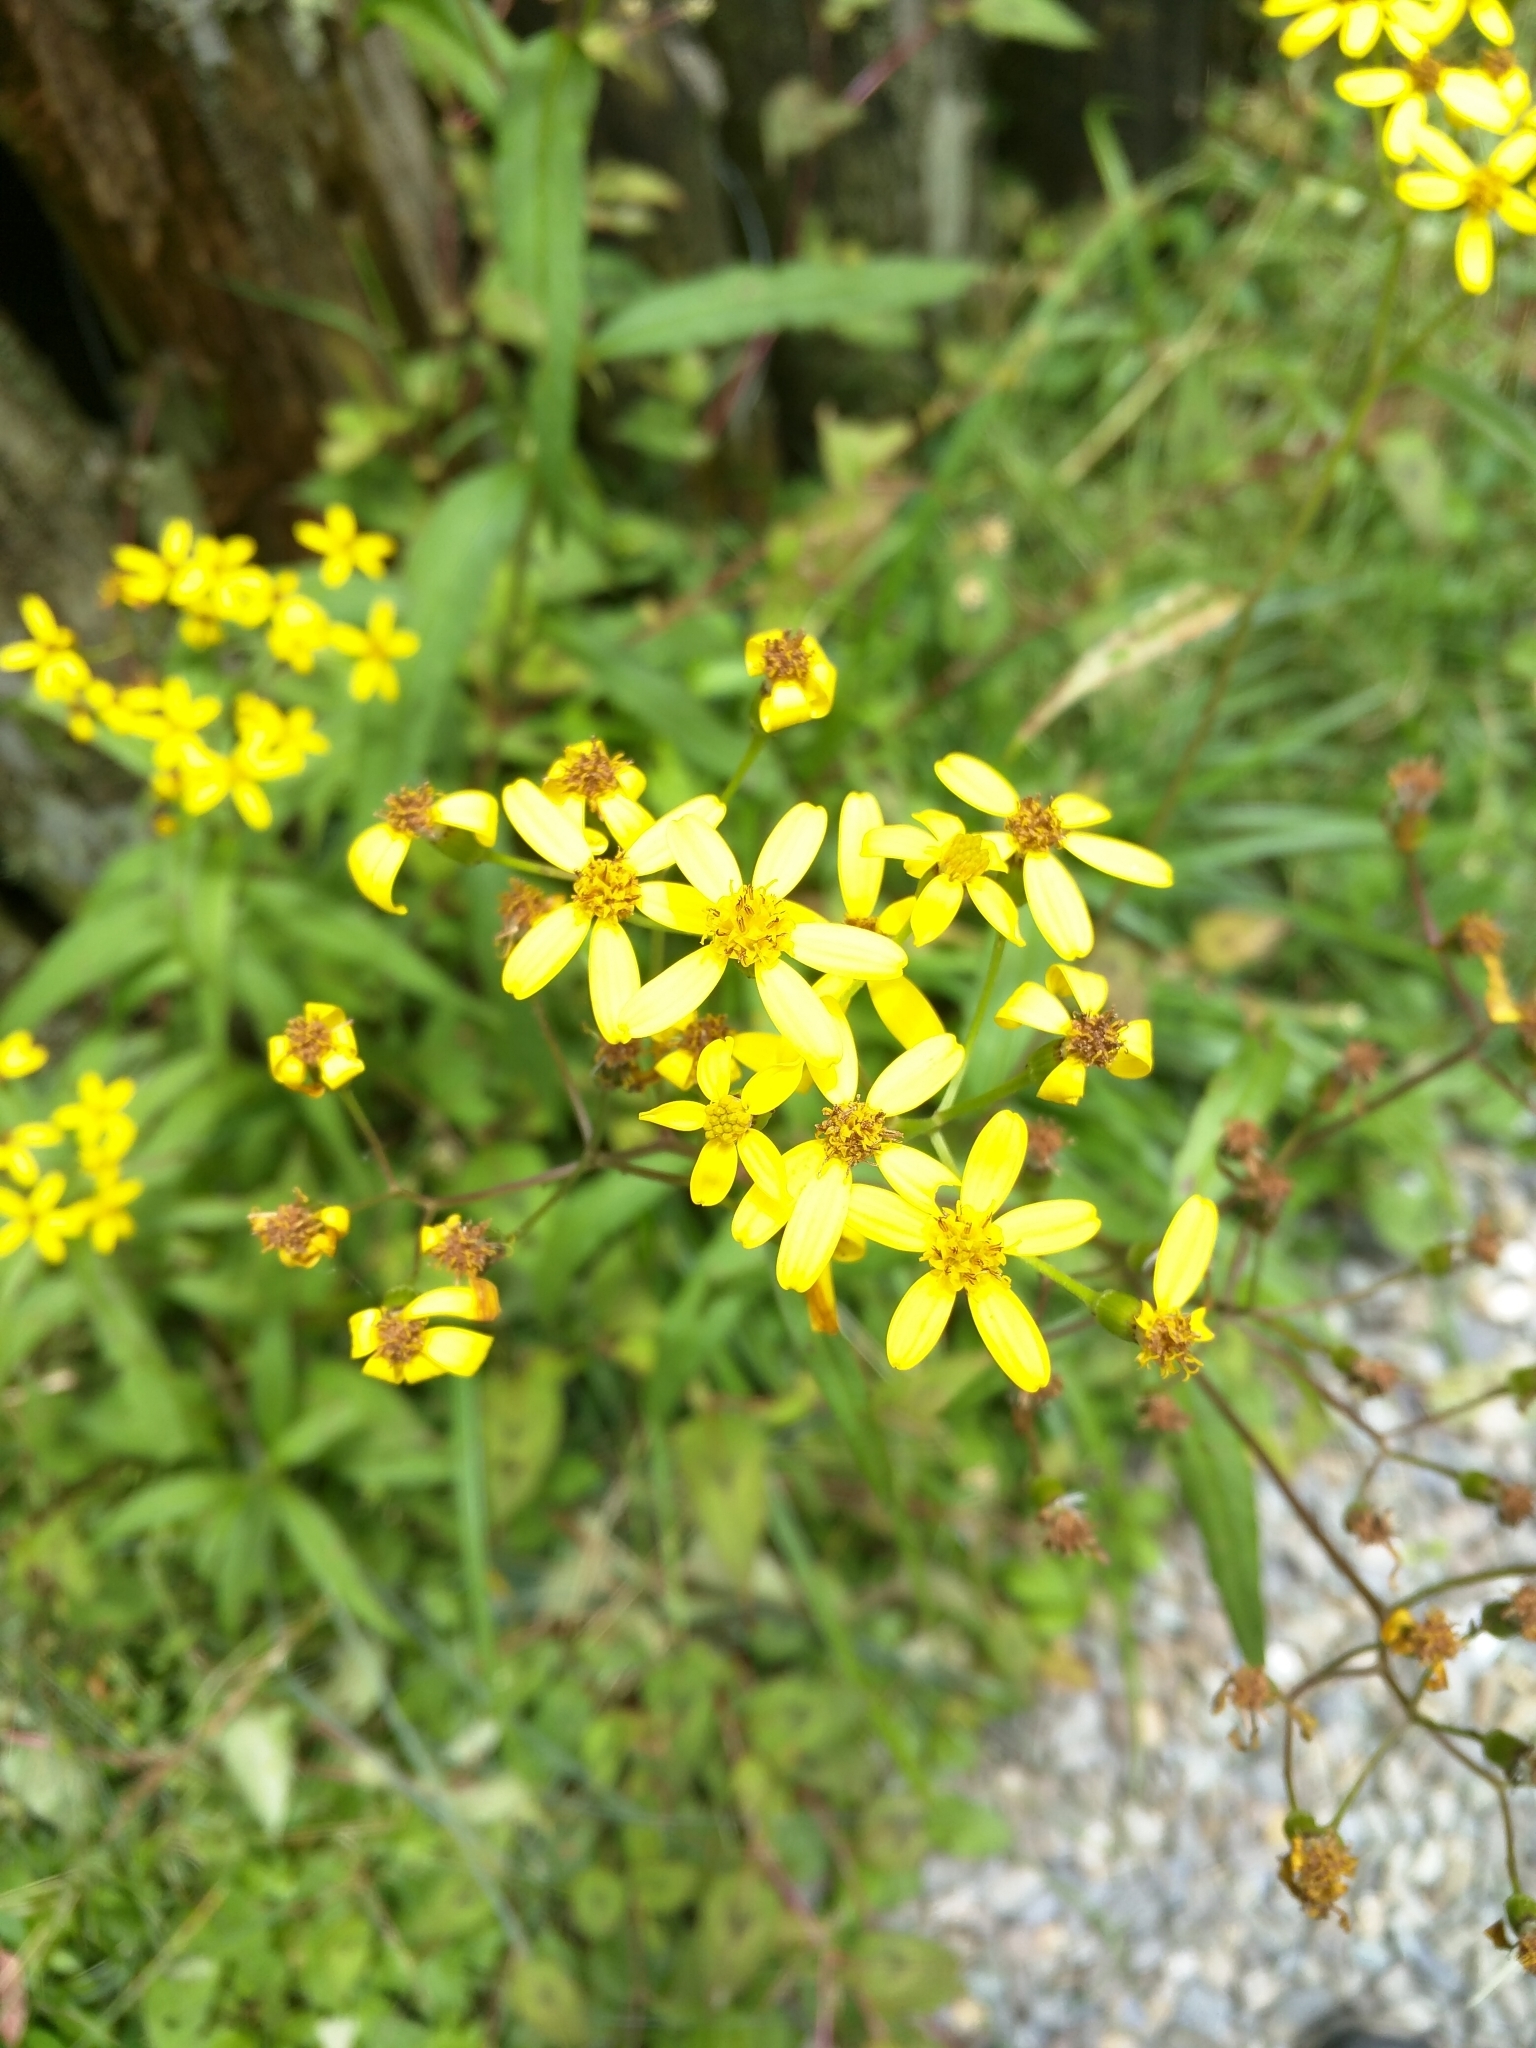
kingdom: Plantae
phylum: Tracheophyta
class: Magnoliopsida
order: Asterales
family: Asteraceae
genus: Jacobaea
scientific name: Jacobaea morrisonensis
